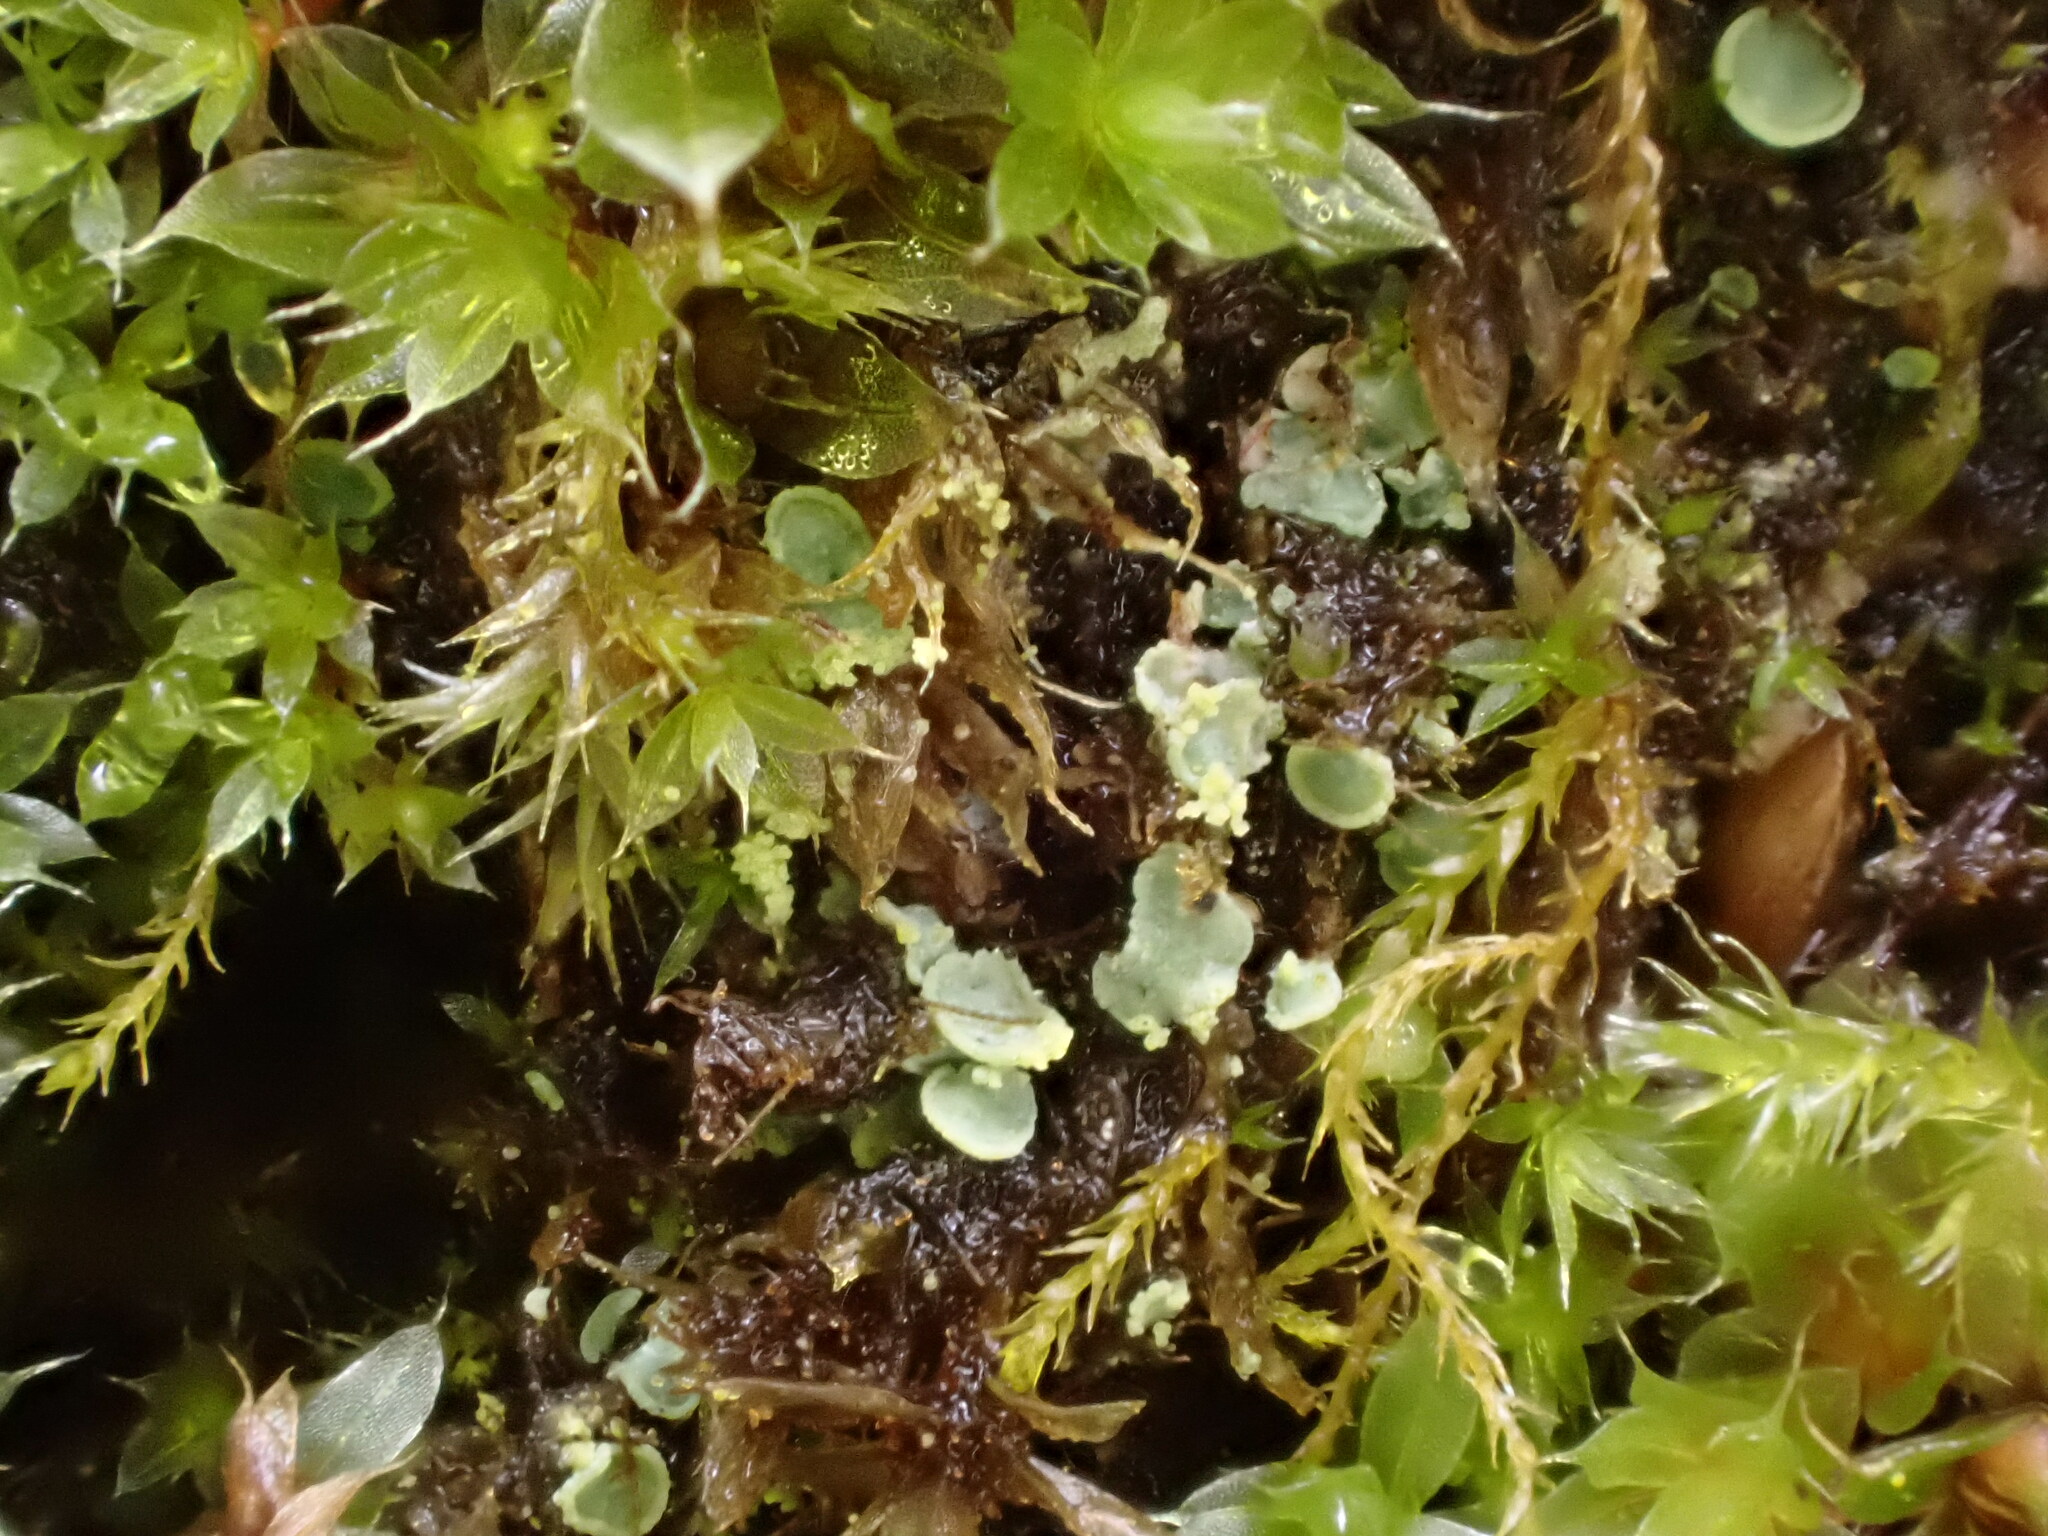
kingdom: Fungi
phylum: Ascomycota
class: Eurotiomycetes
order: Verrucariales
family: Verrucariaceae
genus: Normandina
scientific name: Normandina pulchella
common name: Elf ears lichen
